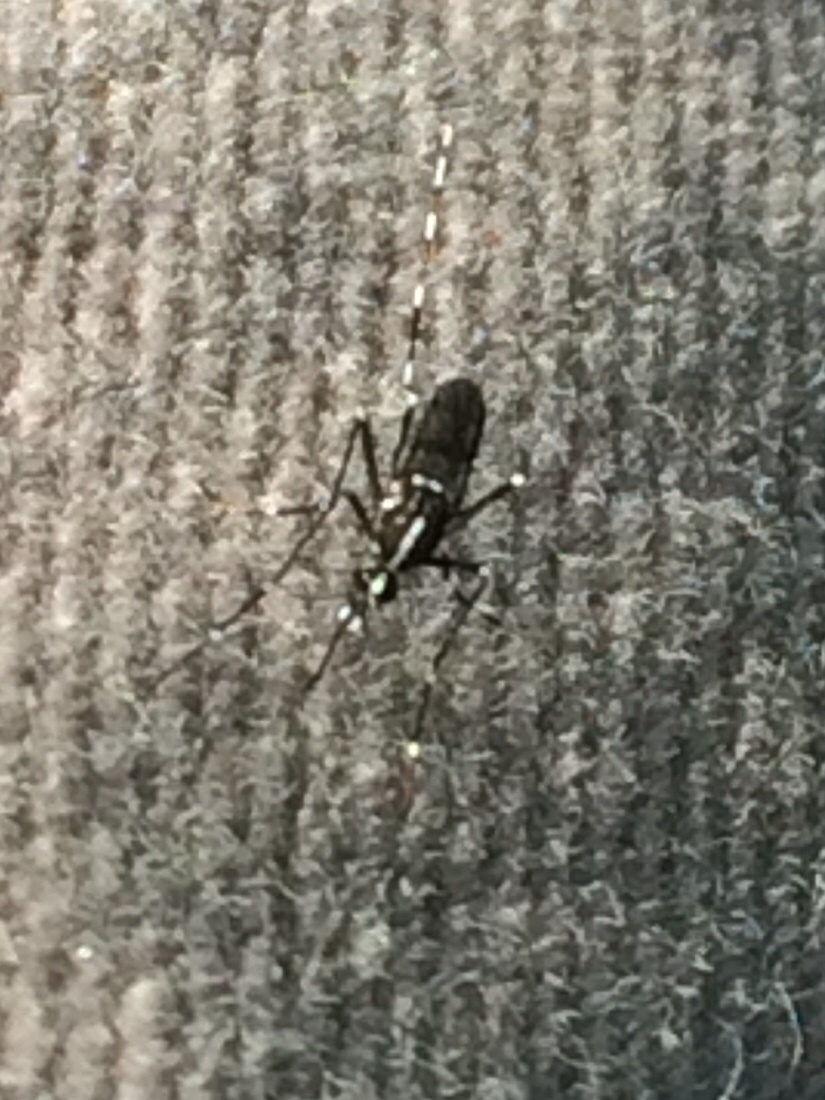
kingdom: Animalia
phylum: Arthropoda
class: Insecta
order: Diptera
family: Culicidae
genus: Aedes
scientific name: Aedes albopictus
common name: Tiger mosquito
